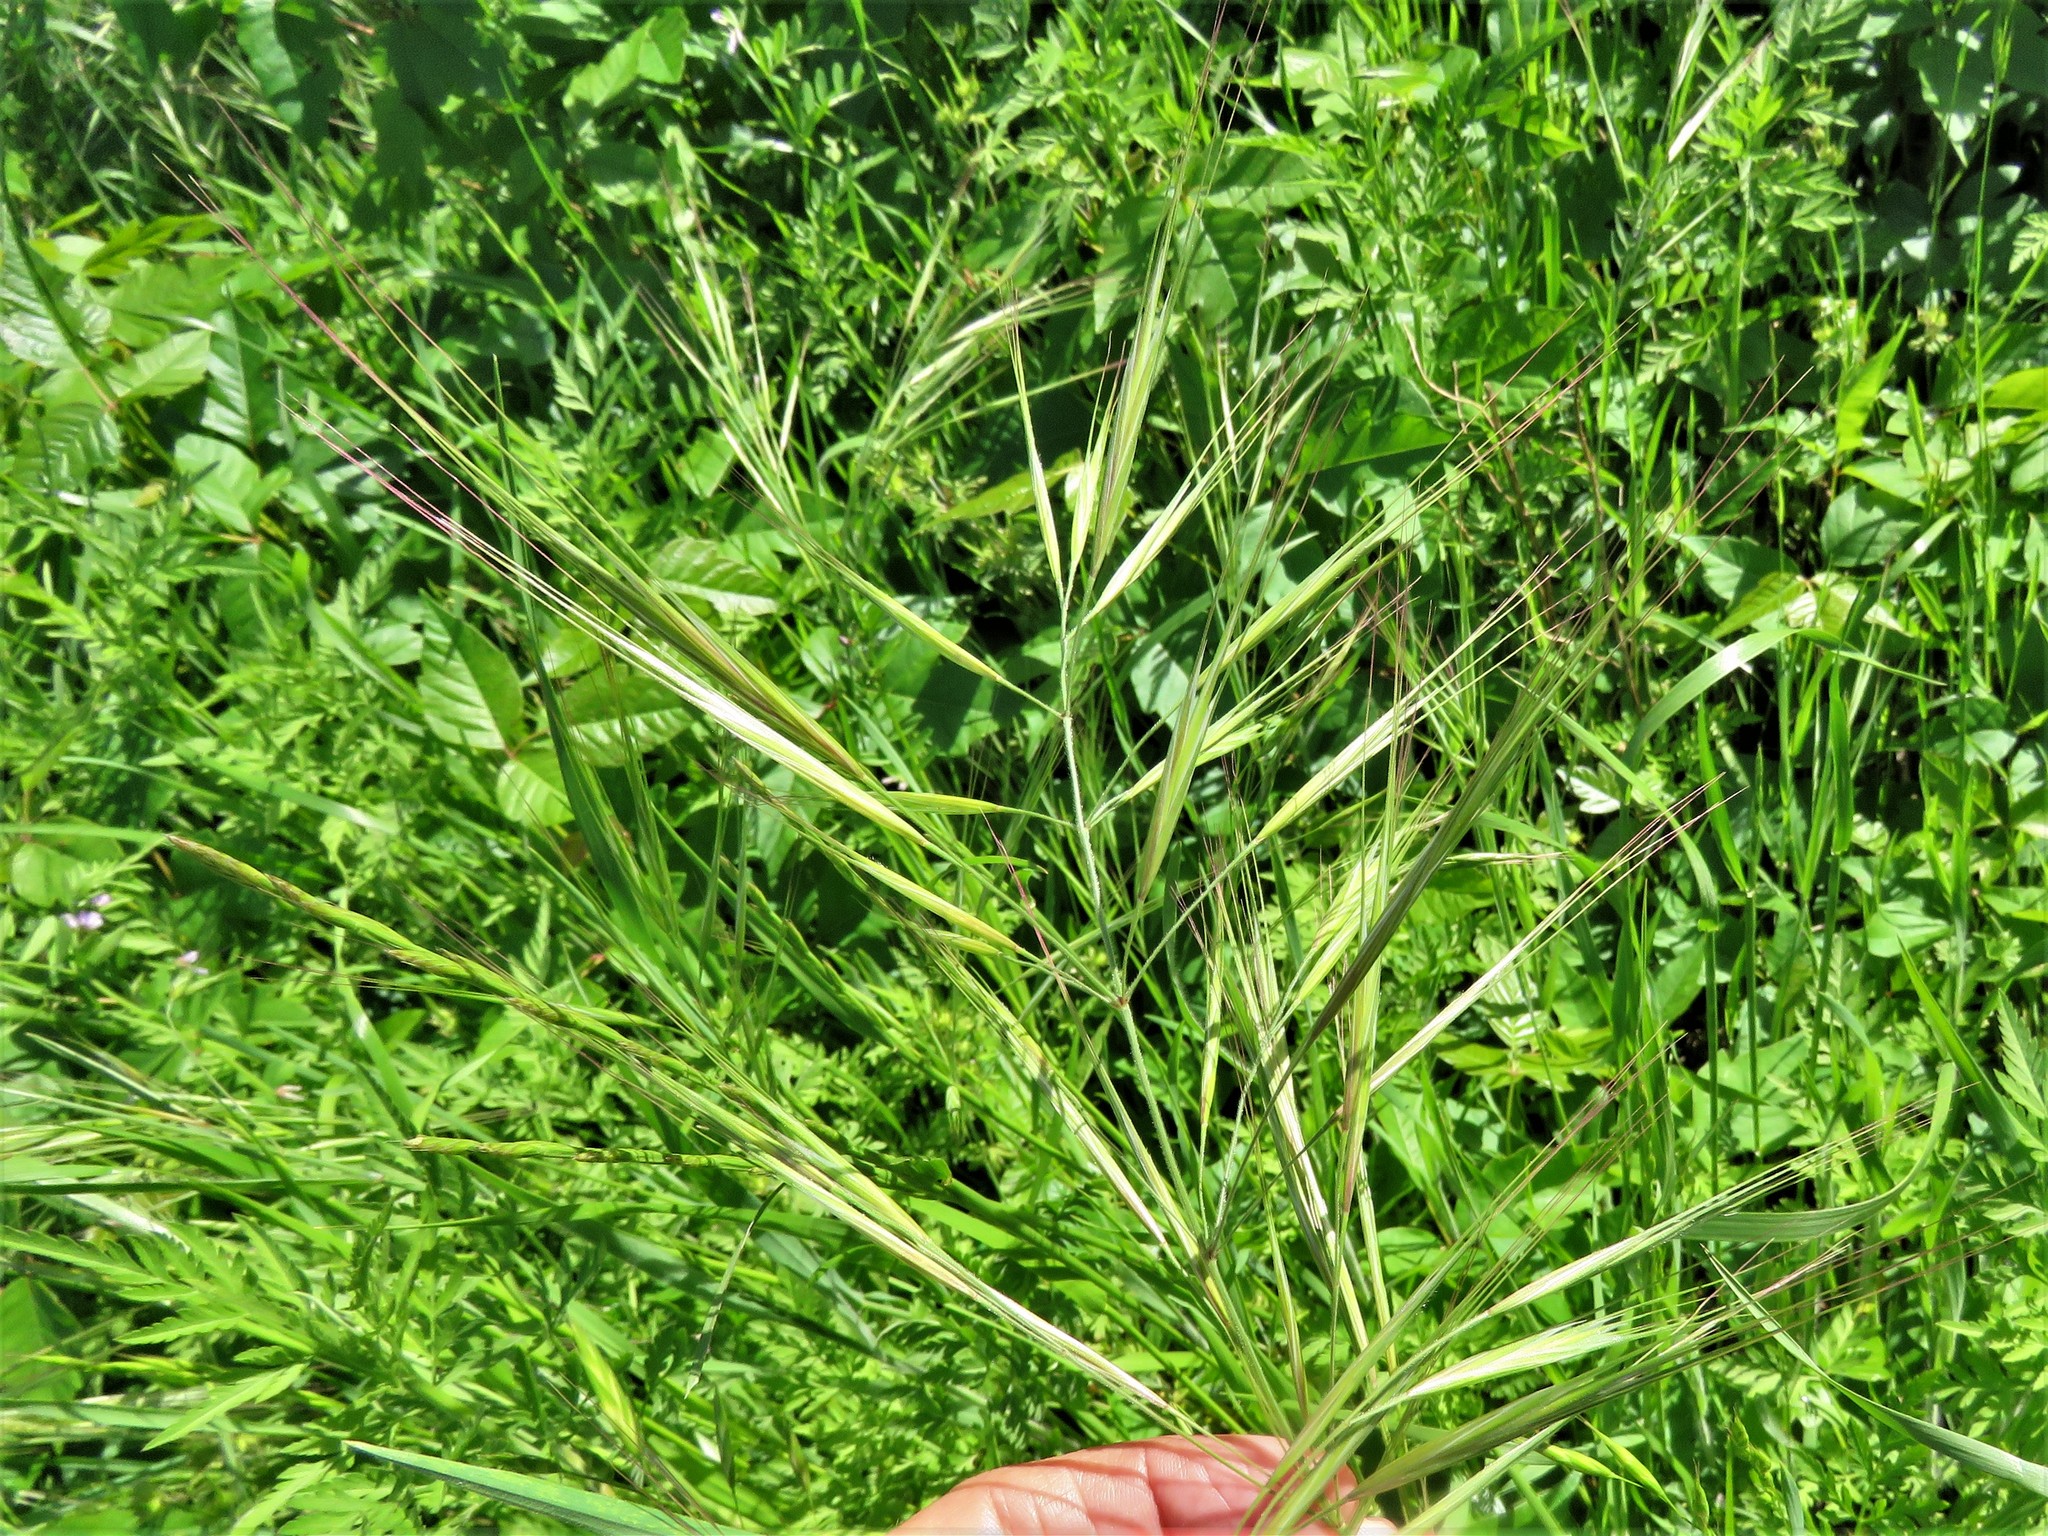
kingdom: Plantae
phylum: Tracheophyta
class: Liliopsida
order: Poales
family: Poaceae
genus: Bromus
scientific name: Bromus diandrus
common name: Ripgut brome
